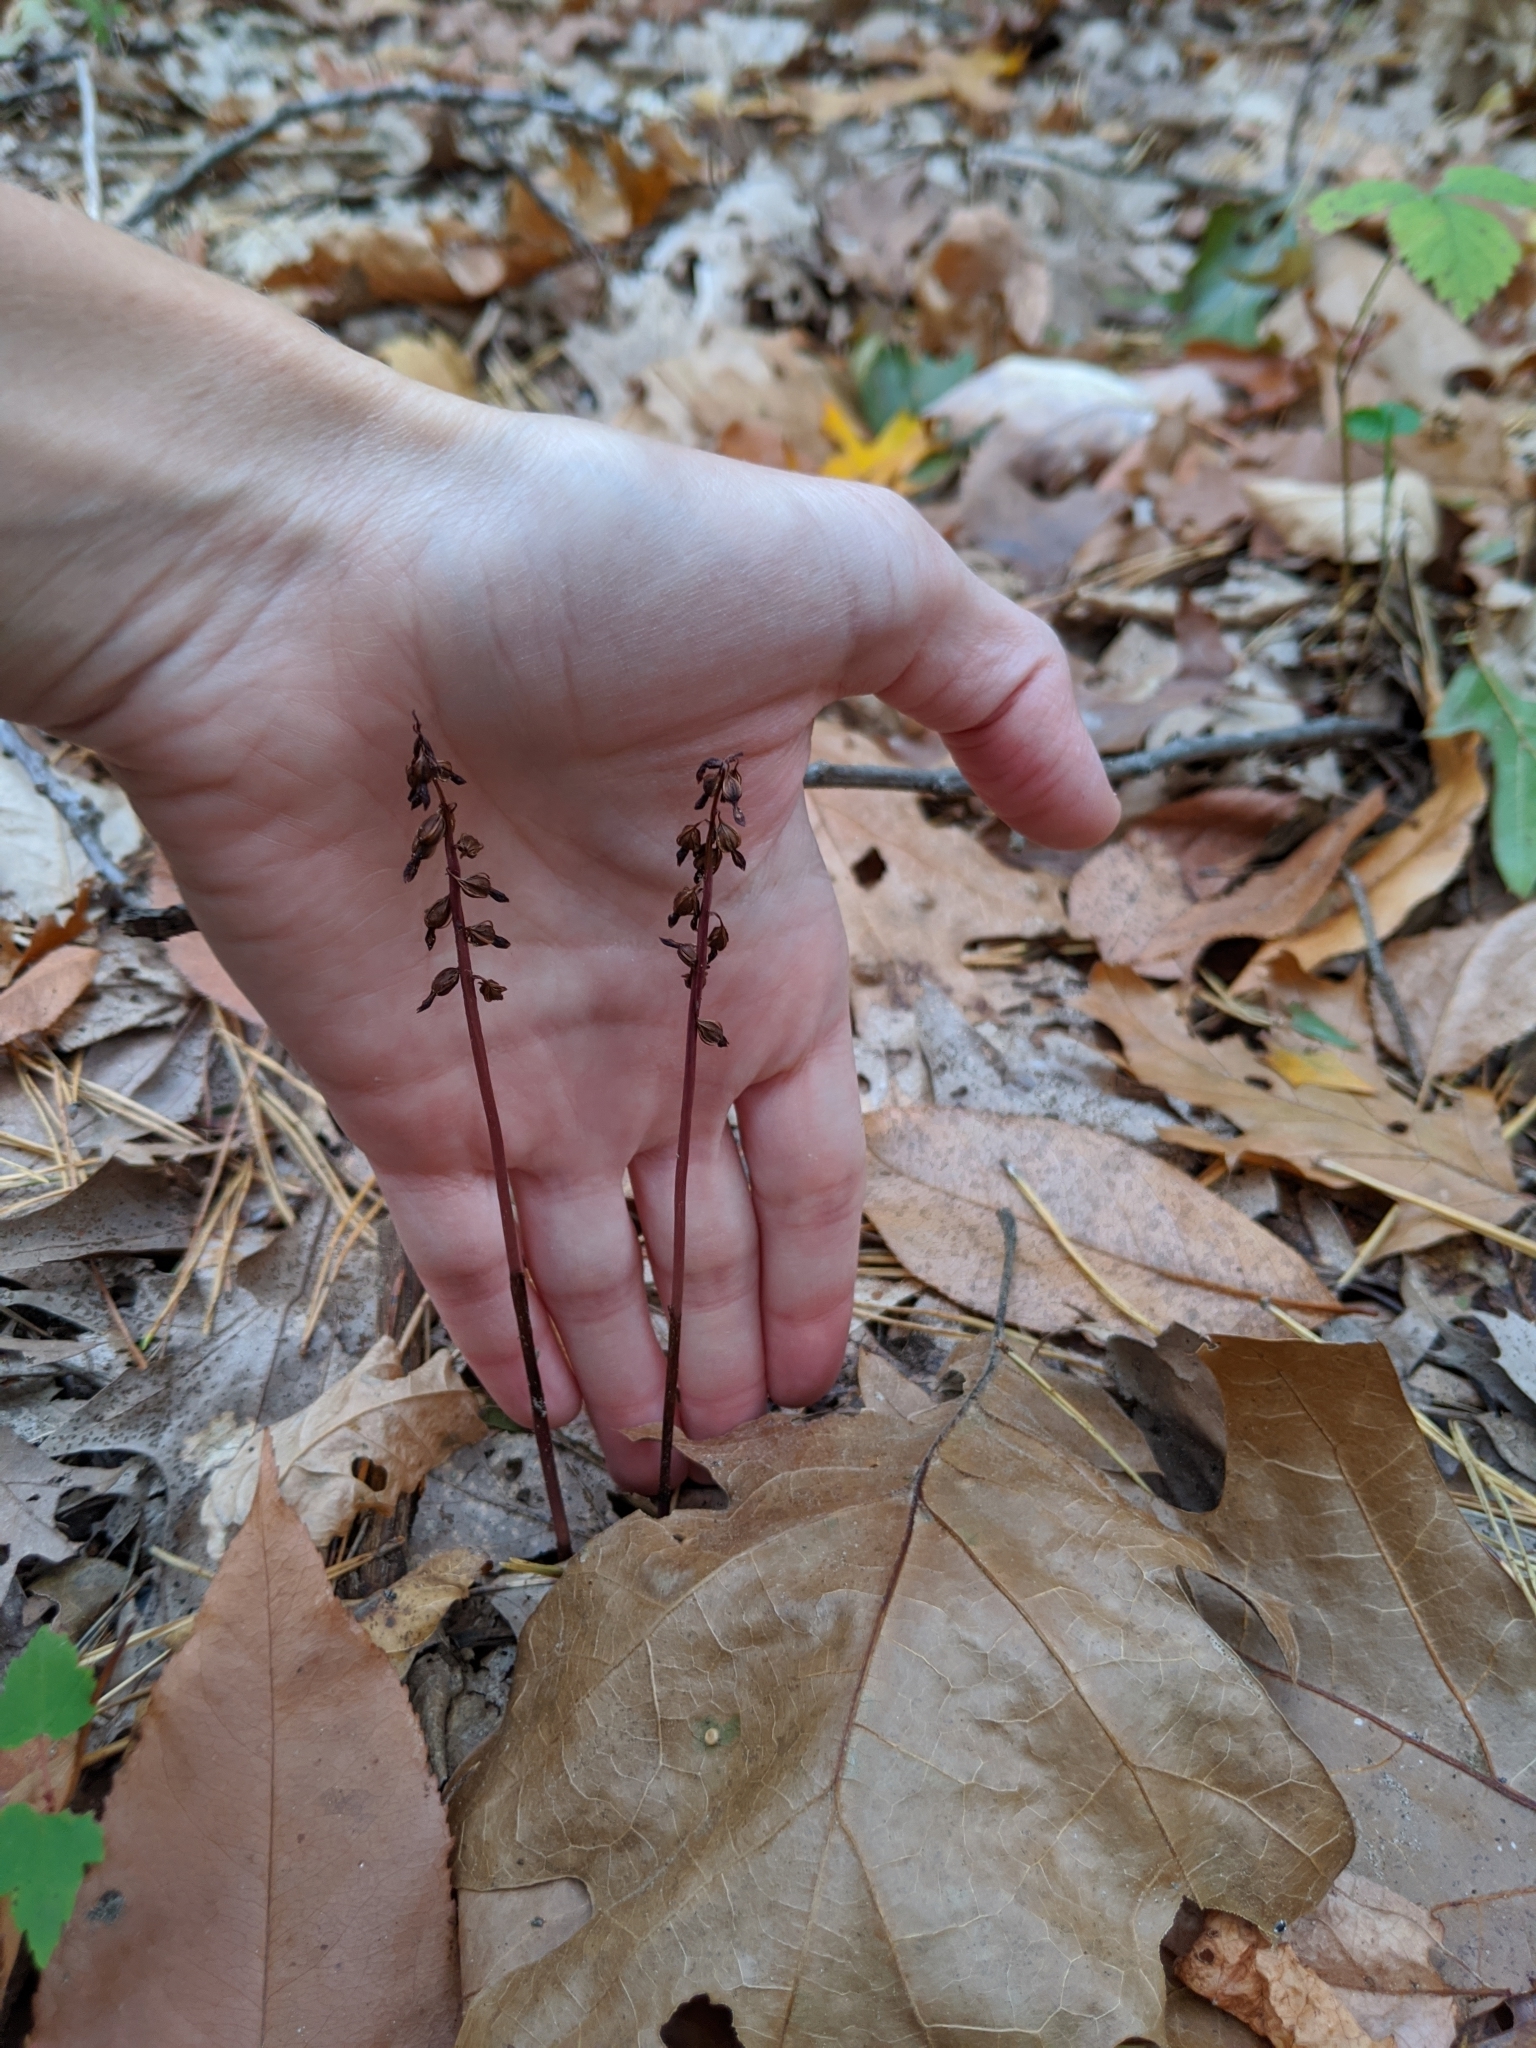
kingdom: Plantae
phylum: Tracheophyta
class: Liliopsida
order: Asparagales
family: Orchidaceae
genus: Corallorhiza
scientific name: Corallorhiza odontorhiza
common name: Autumn coralroot
